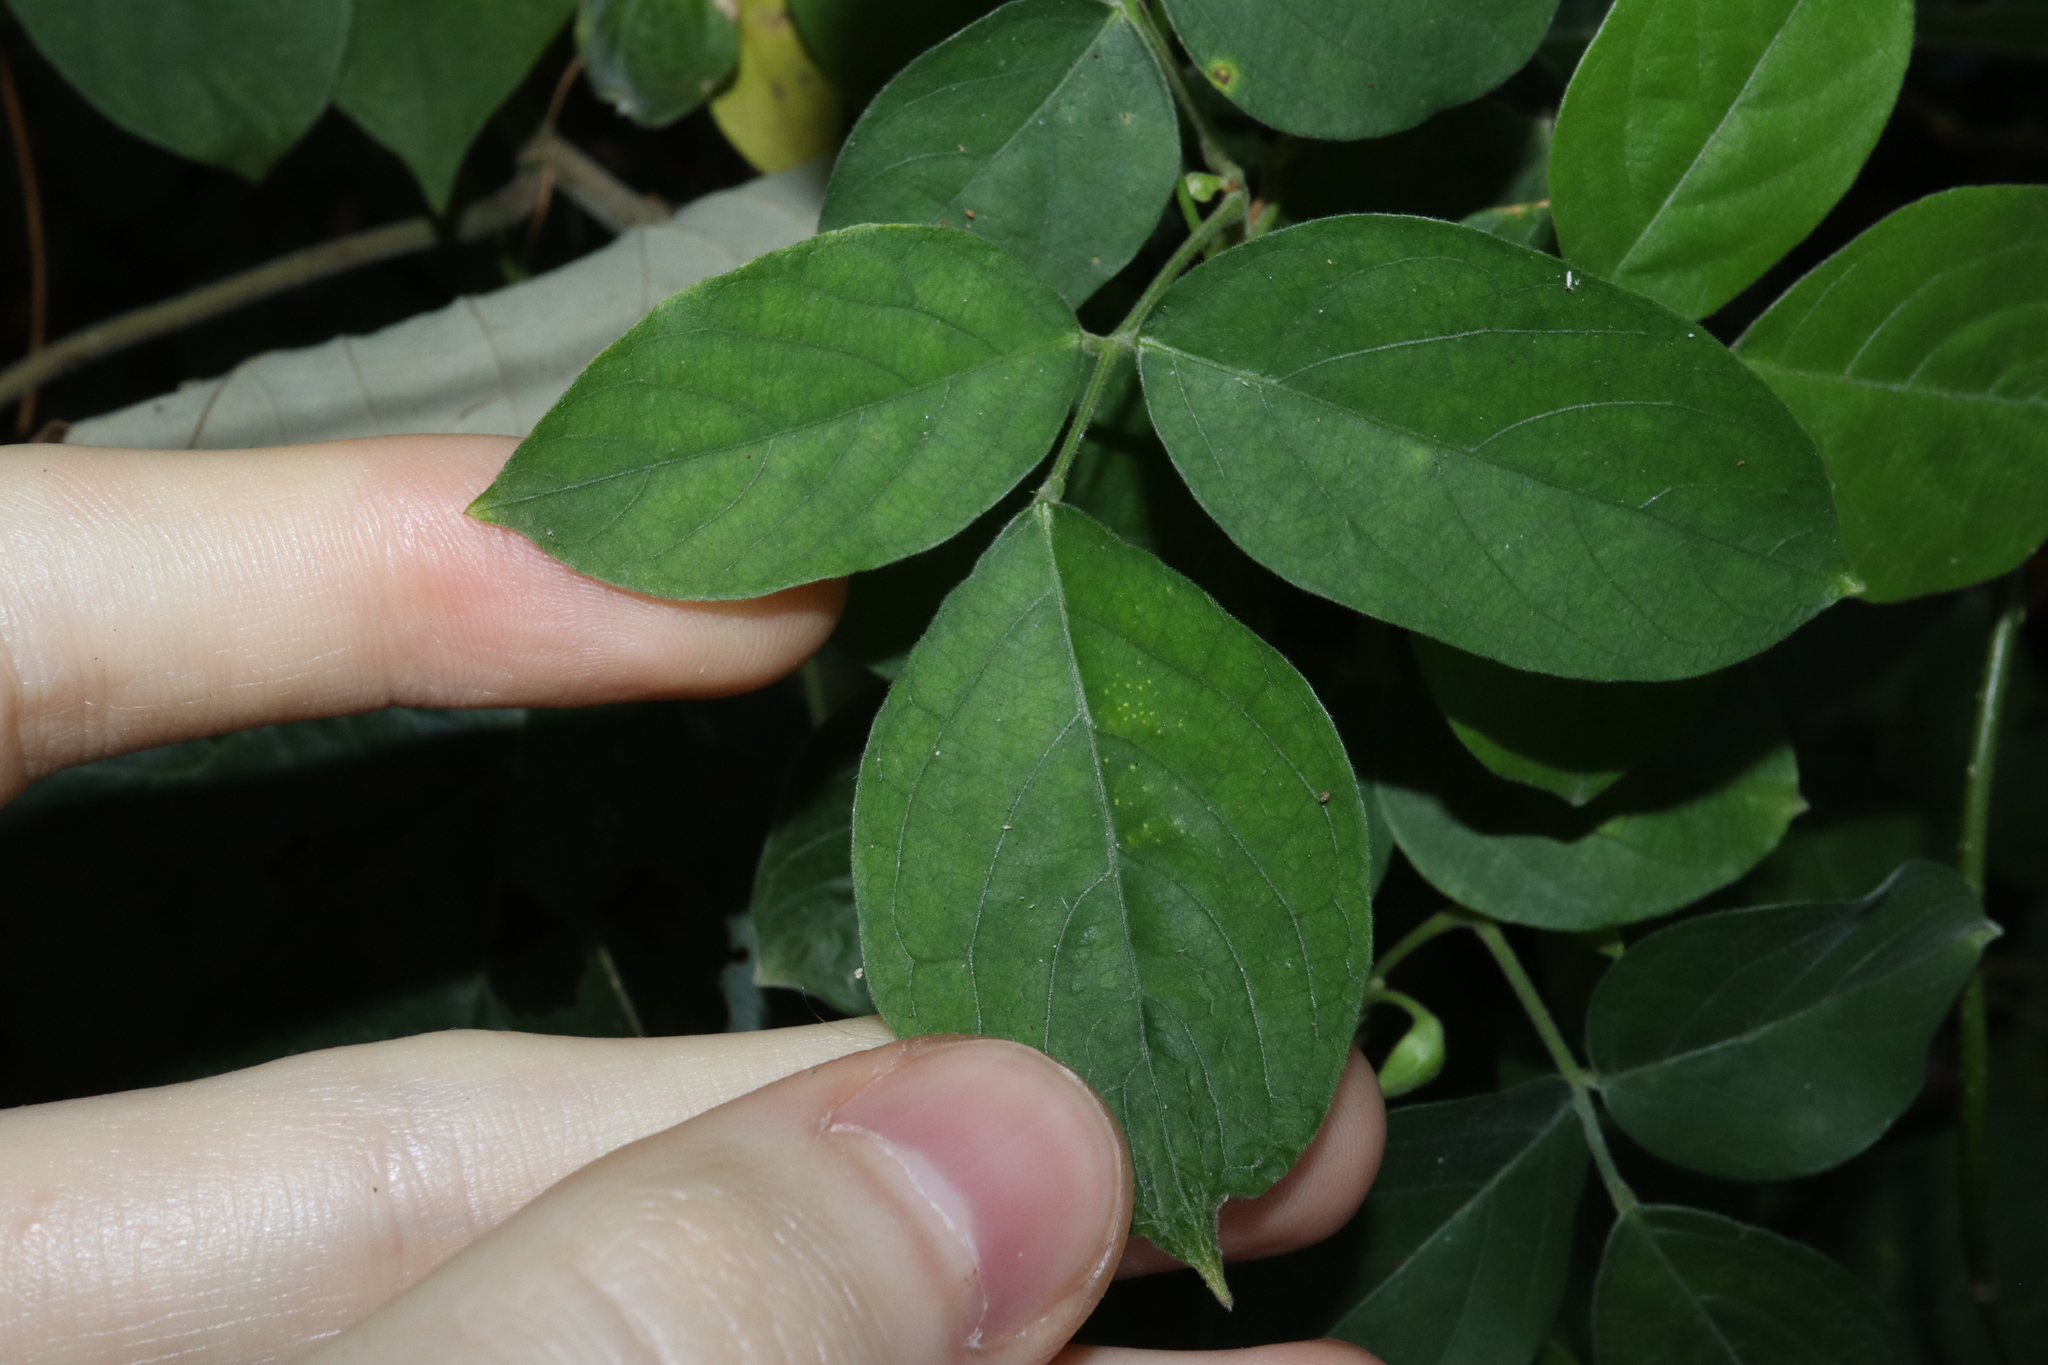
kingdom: Plantae
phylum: Tracheophyta
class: Magnoliopsida
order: Fabales
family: Fabaceae
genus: Centrosema
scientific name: Centrosema molle
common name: Soft butterfly pea
